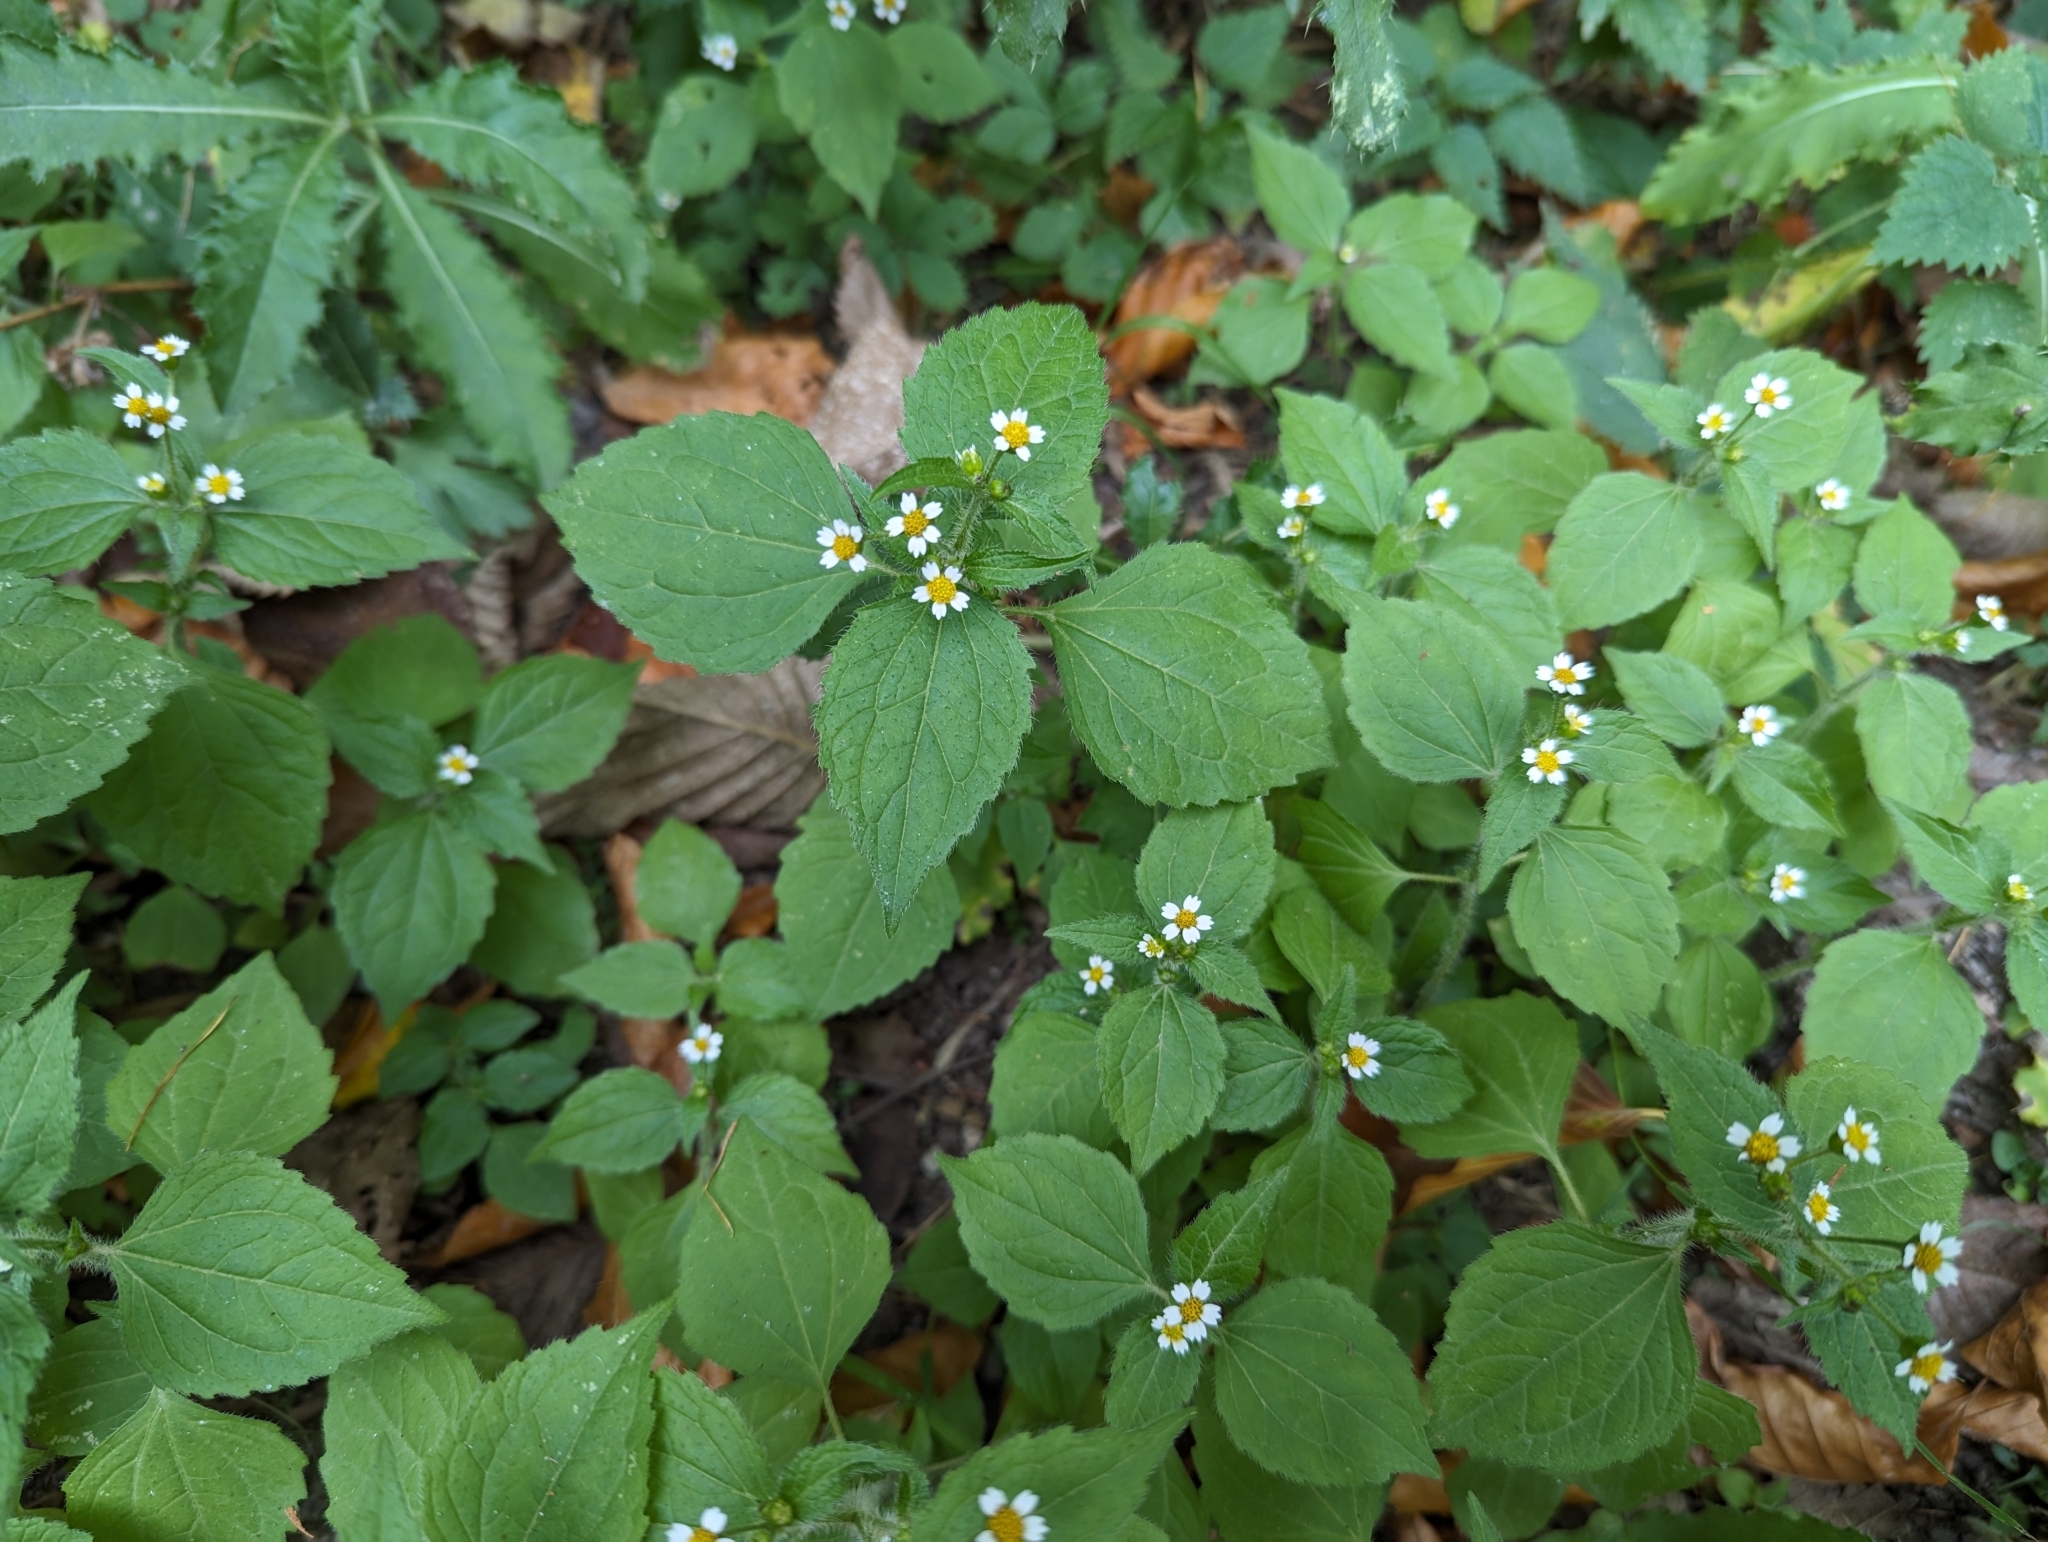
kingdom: Plantae
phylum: Tracheophyta
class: Magnoliopsida
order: Asterales
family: Asteraceae
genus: Galinsoga
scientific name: Galinsoga quadriradiata
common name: Shaggy soldier
